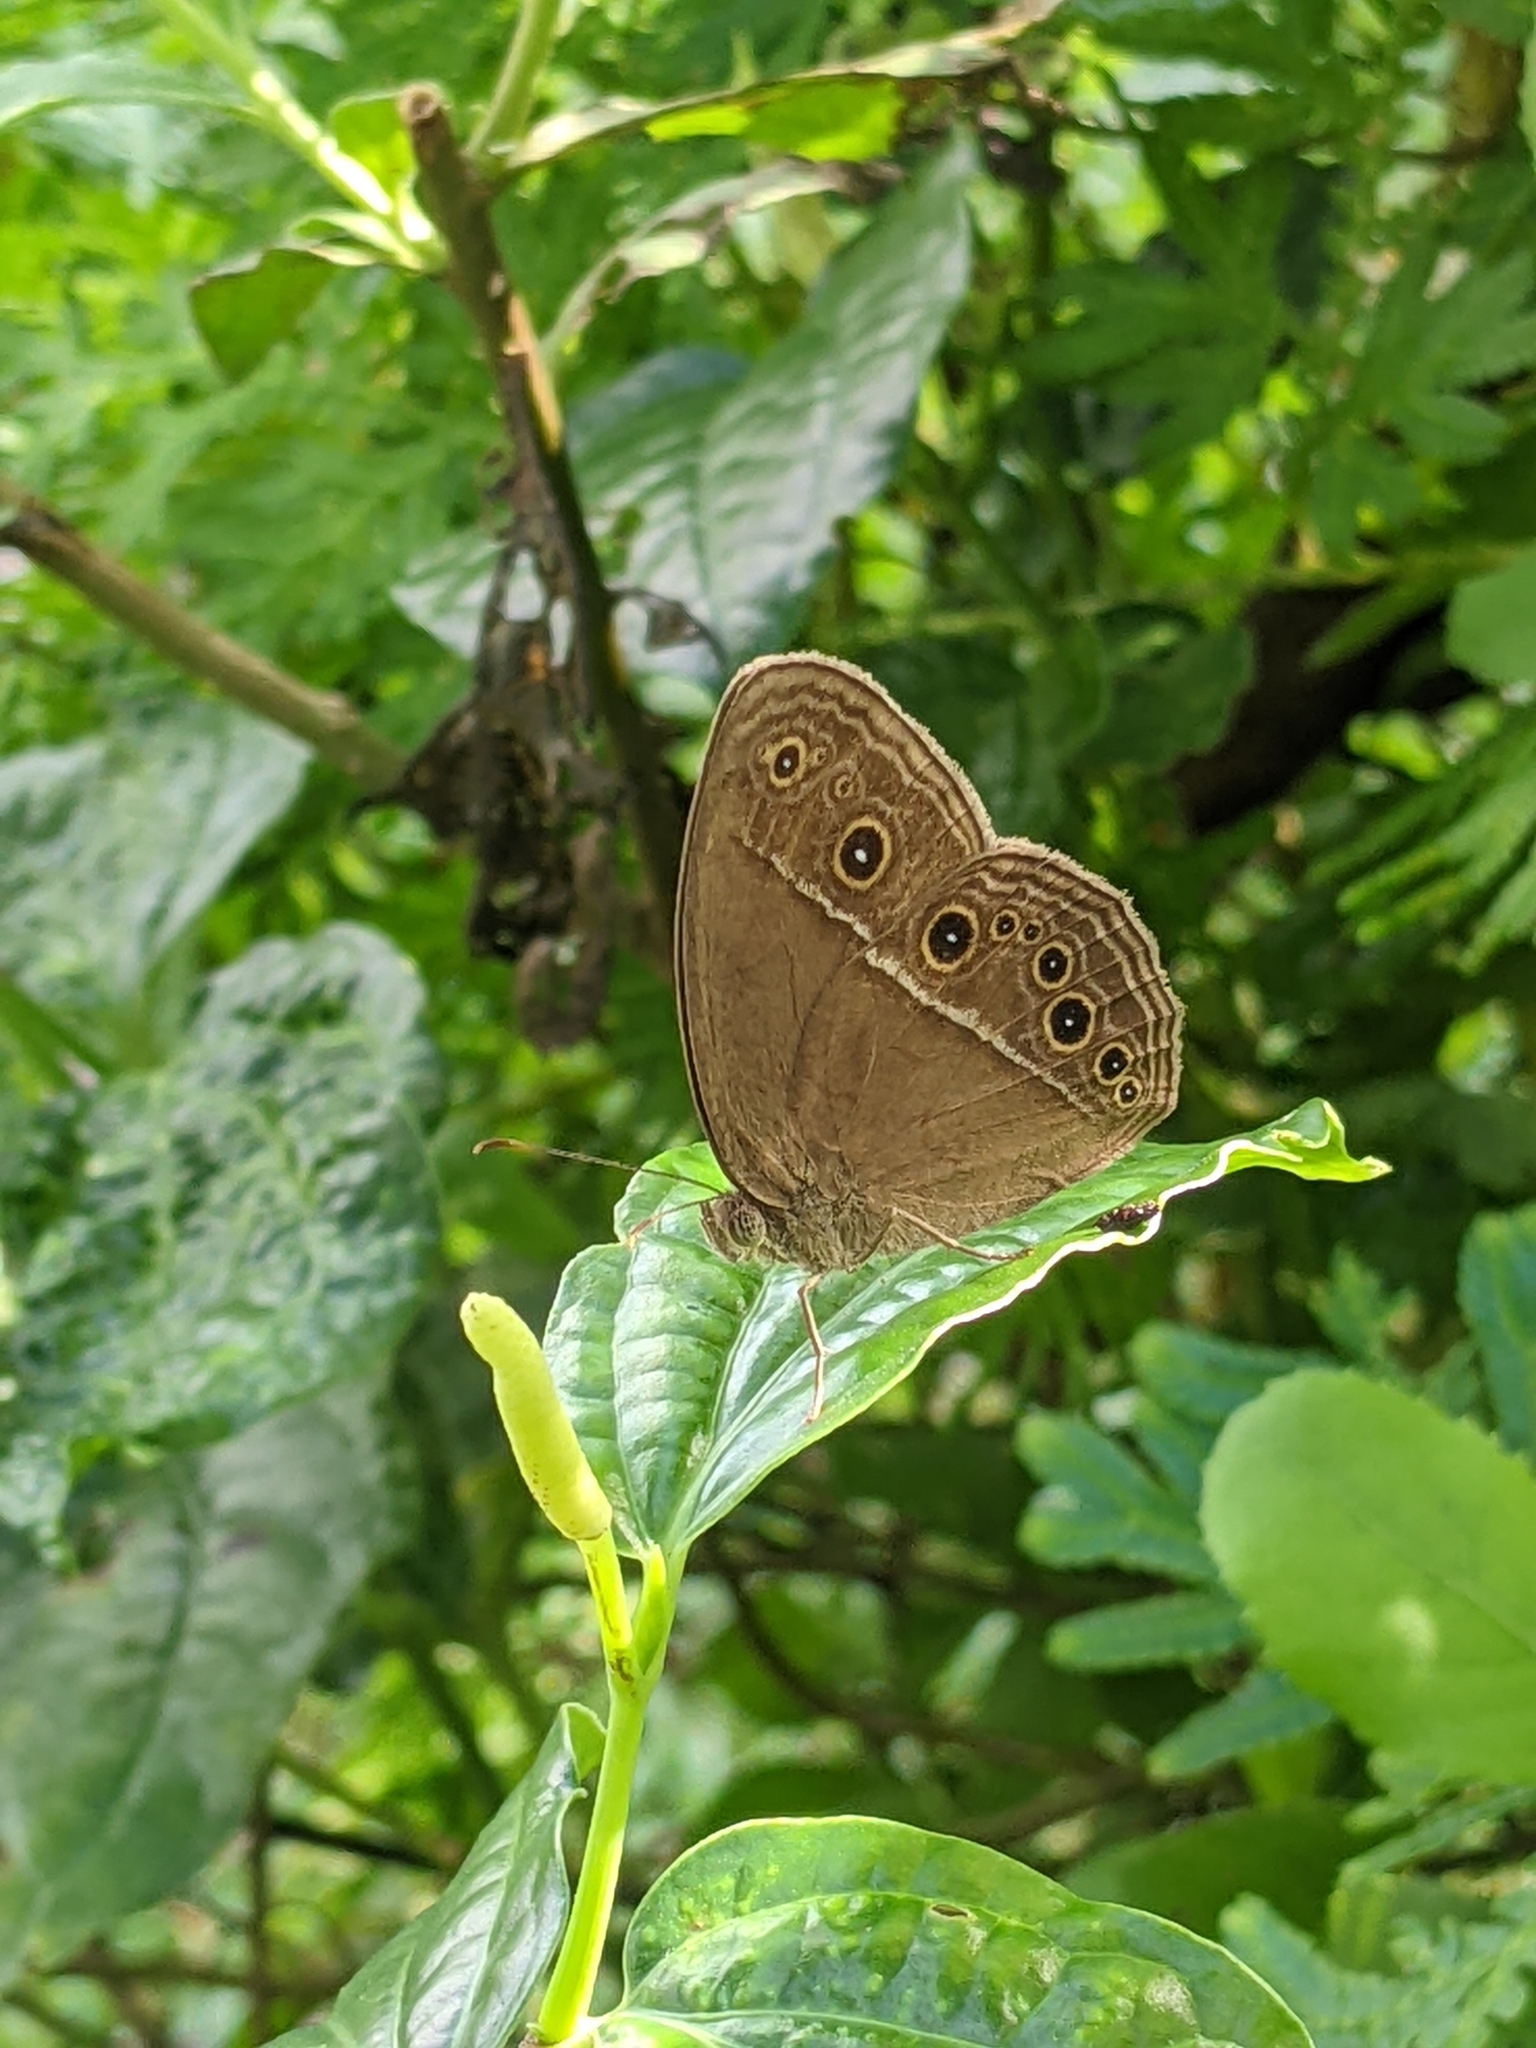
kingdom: Animalia
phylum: Arthropoda
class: Insecta
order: Lepidoptera
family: Nymphalidae
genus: Mycalesis
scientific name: Mycalesis perseus
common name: Dingy bushbrown
